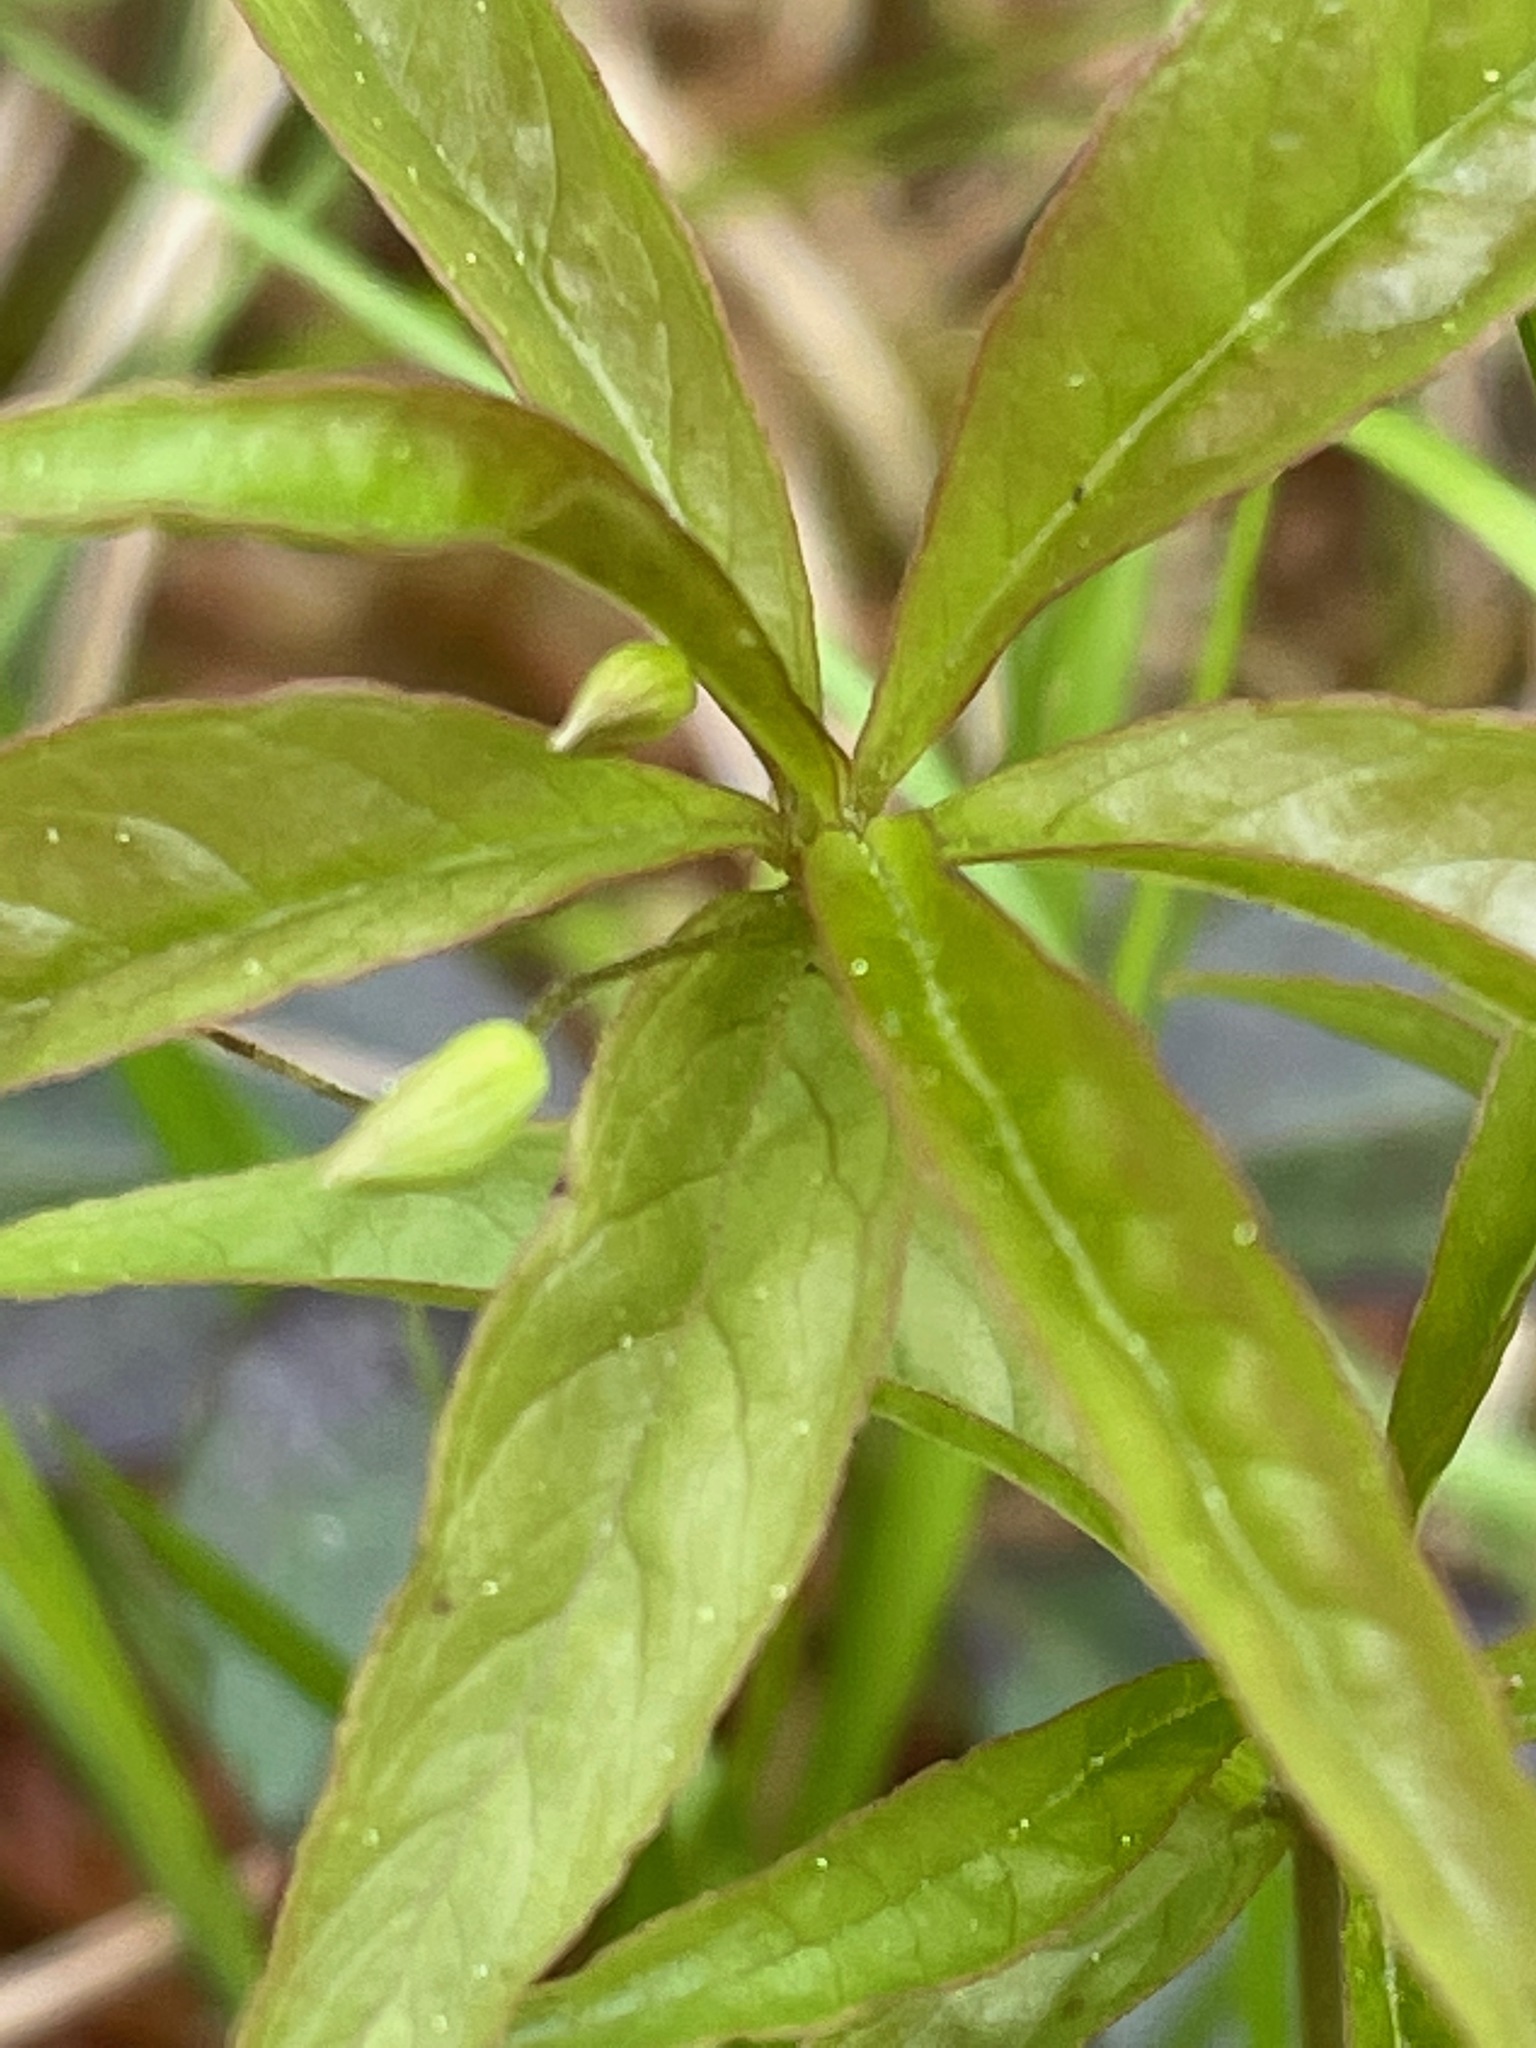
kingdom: Plantae
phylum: Tracheophyta
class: Magnoliopsida
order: Ericales
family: Primulaceae
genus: Lysimachia
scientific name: Lysimachia borealis
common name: American starflower
